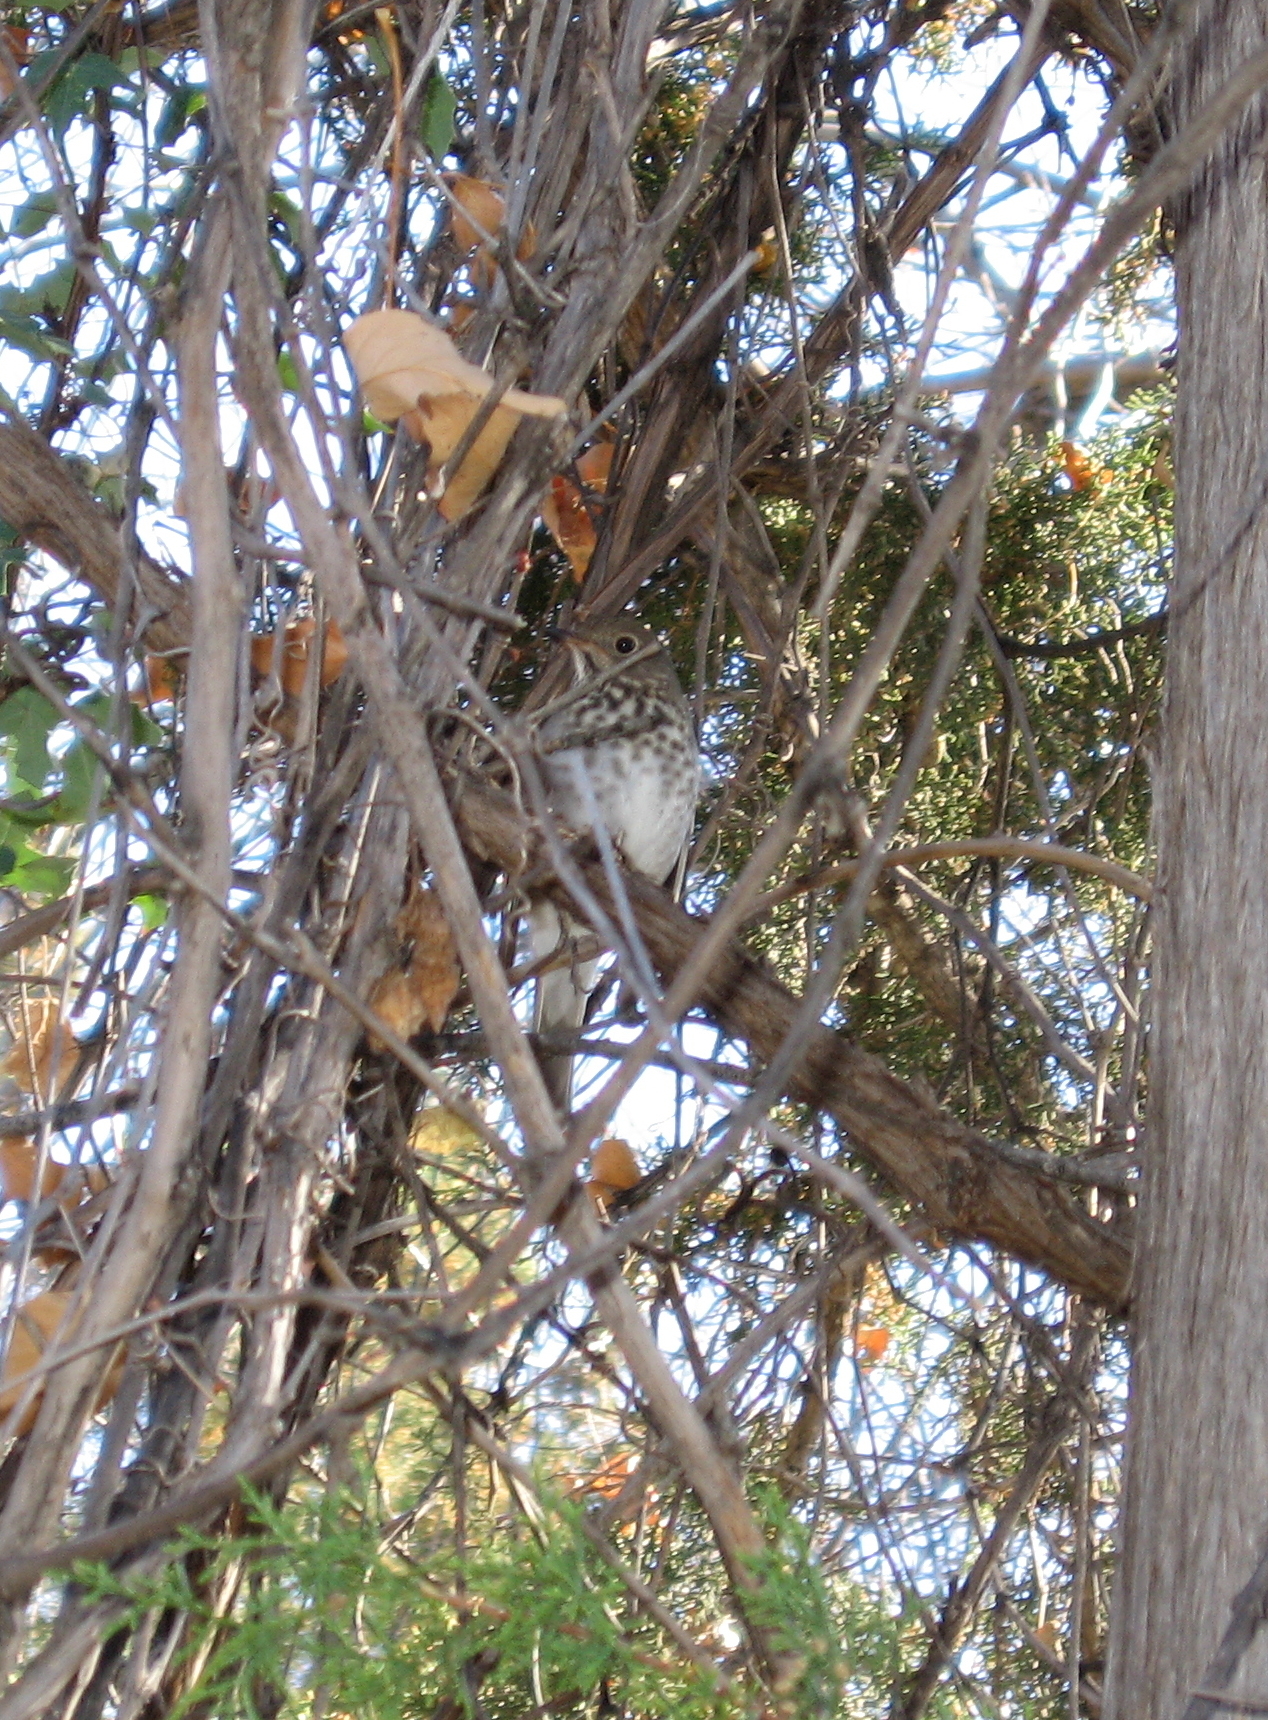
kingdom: Animalia
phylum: Chordata
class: Aves
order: Passeriformes
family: Turdidae
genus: Catharus
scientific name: Catharus guttatus
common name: Hermit thrush
